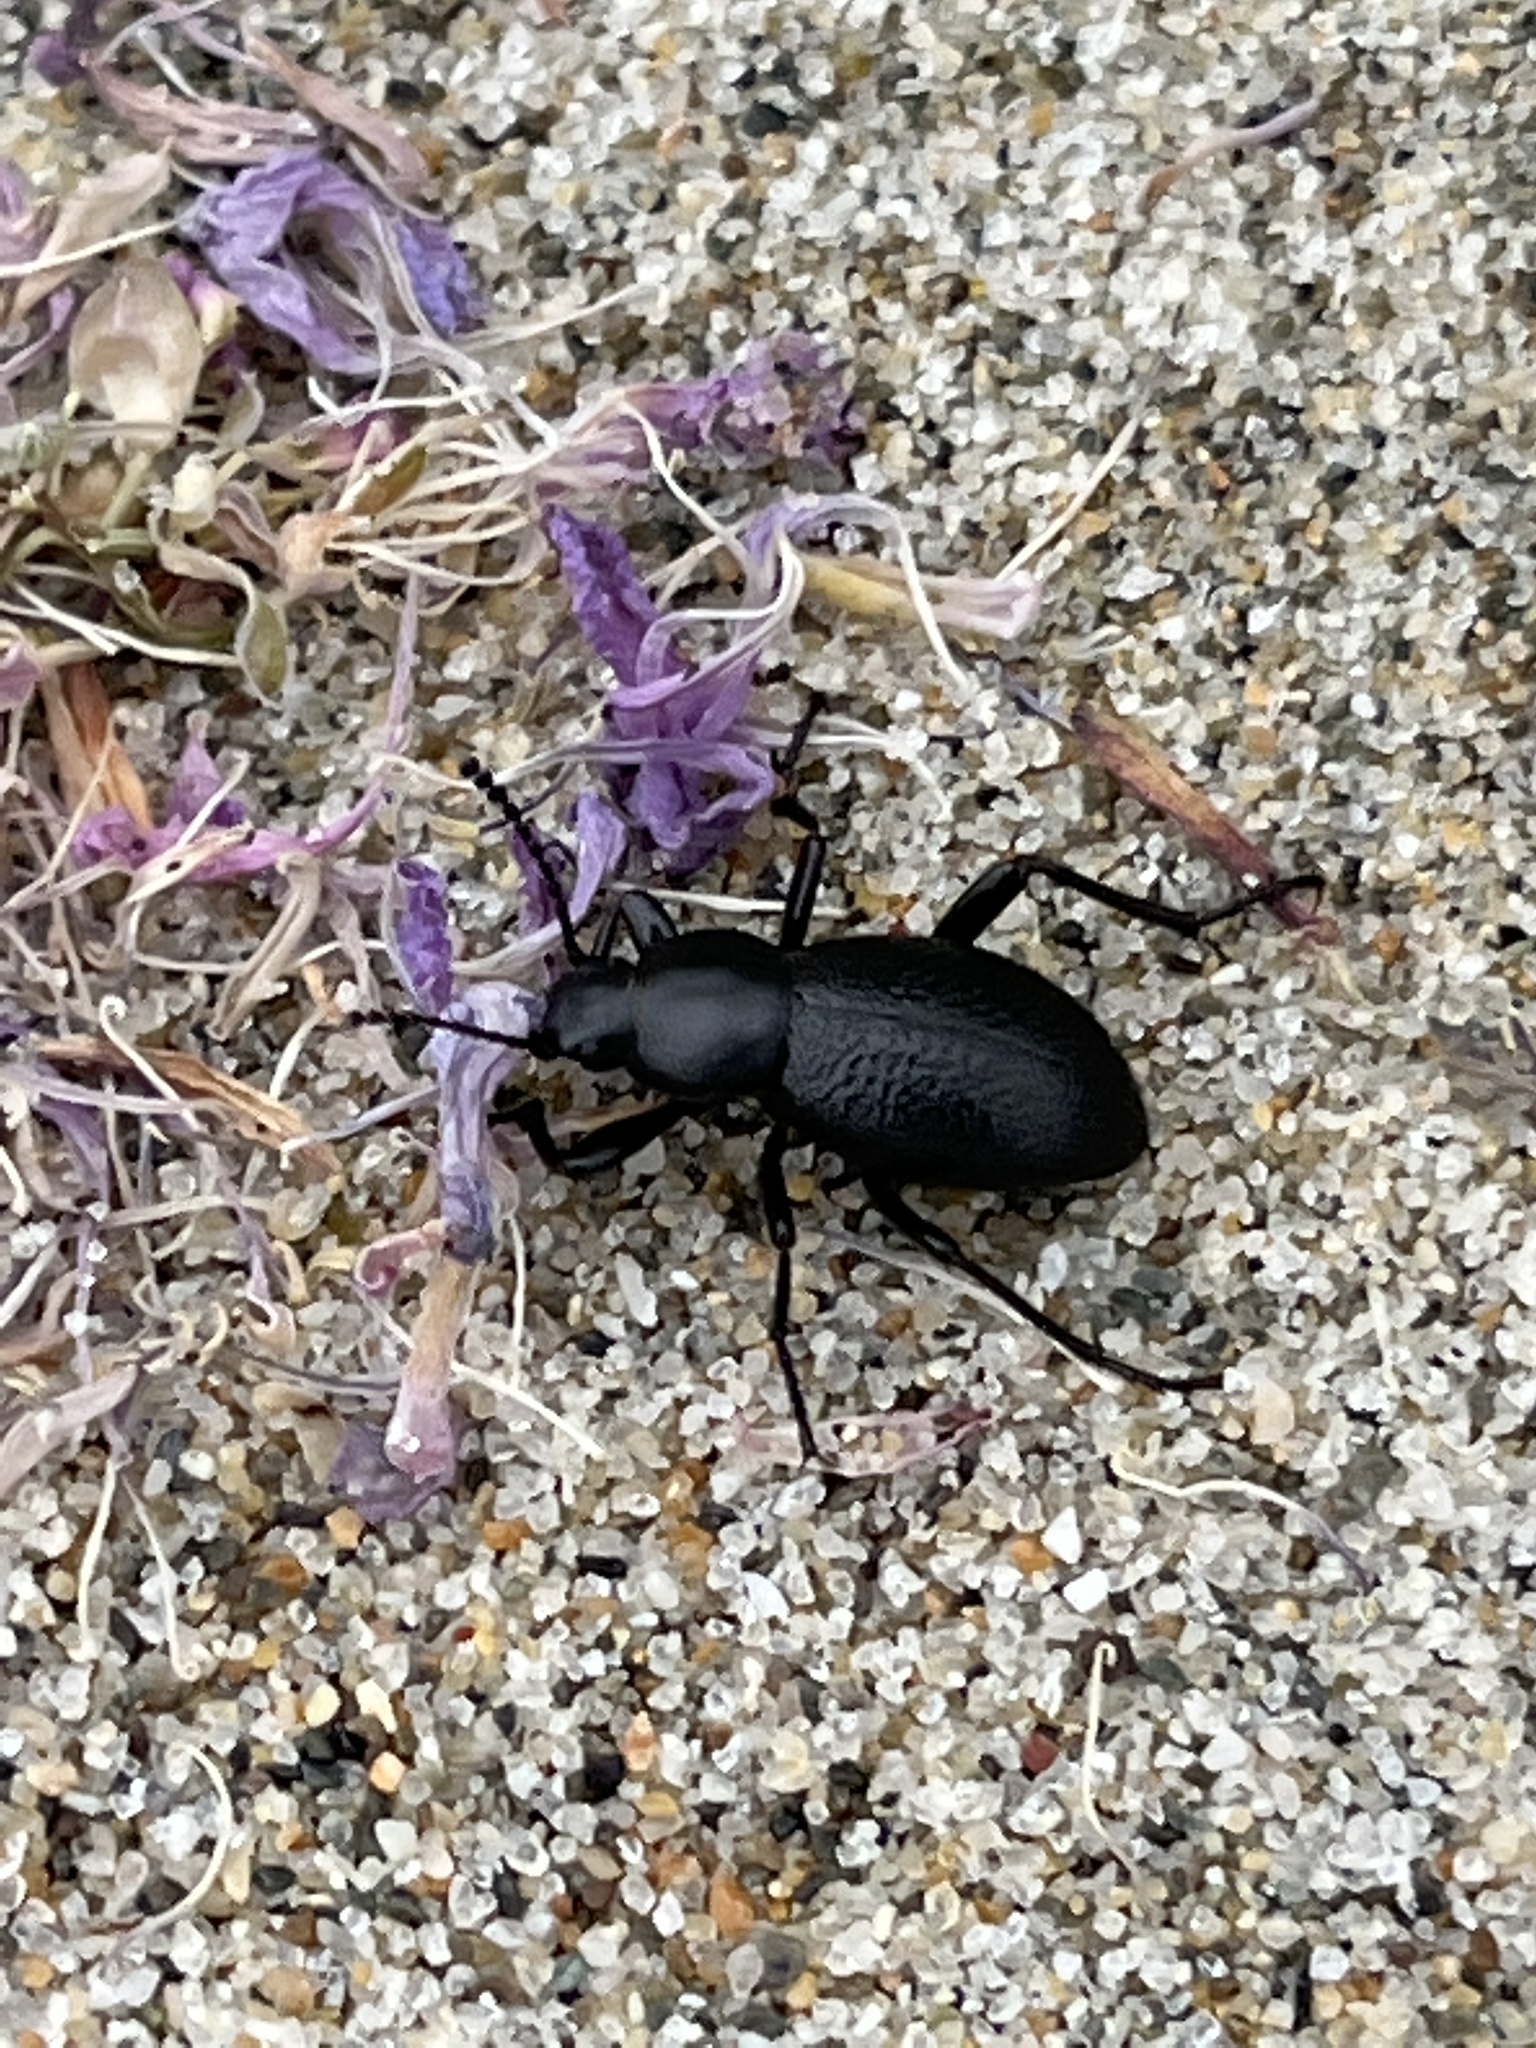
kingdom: Animalia
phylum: Arthropoda
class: Insecta
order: Coleoptera
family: Tenebrionidae
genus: Eleodes
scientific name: Eleodes clavicornis
